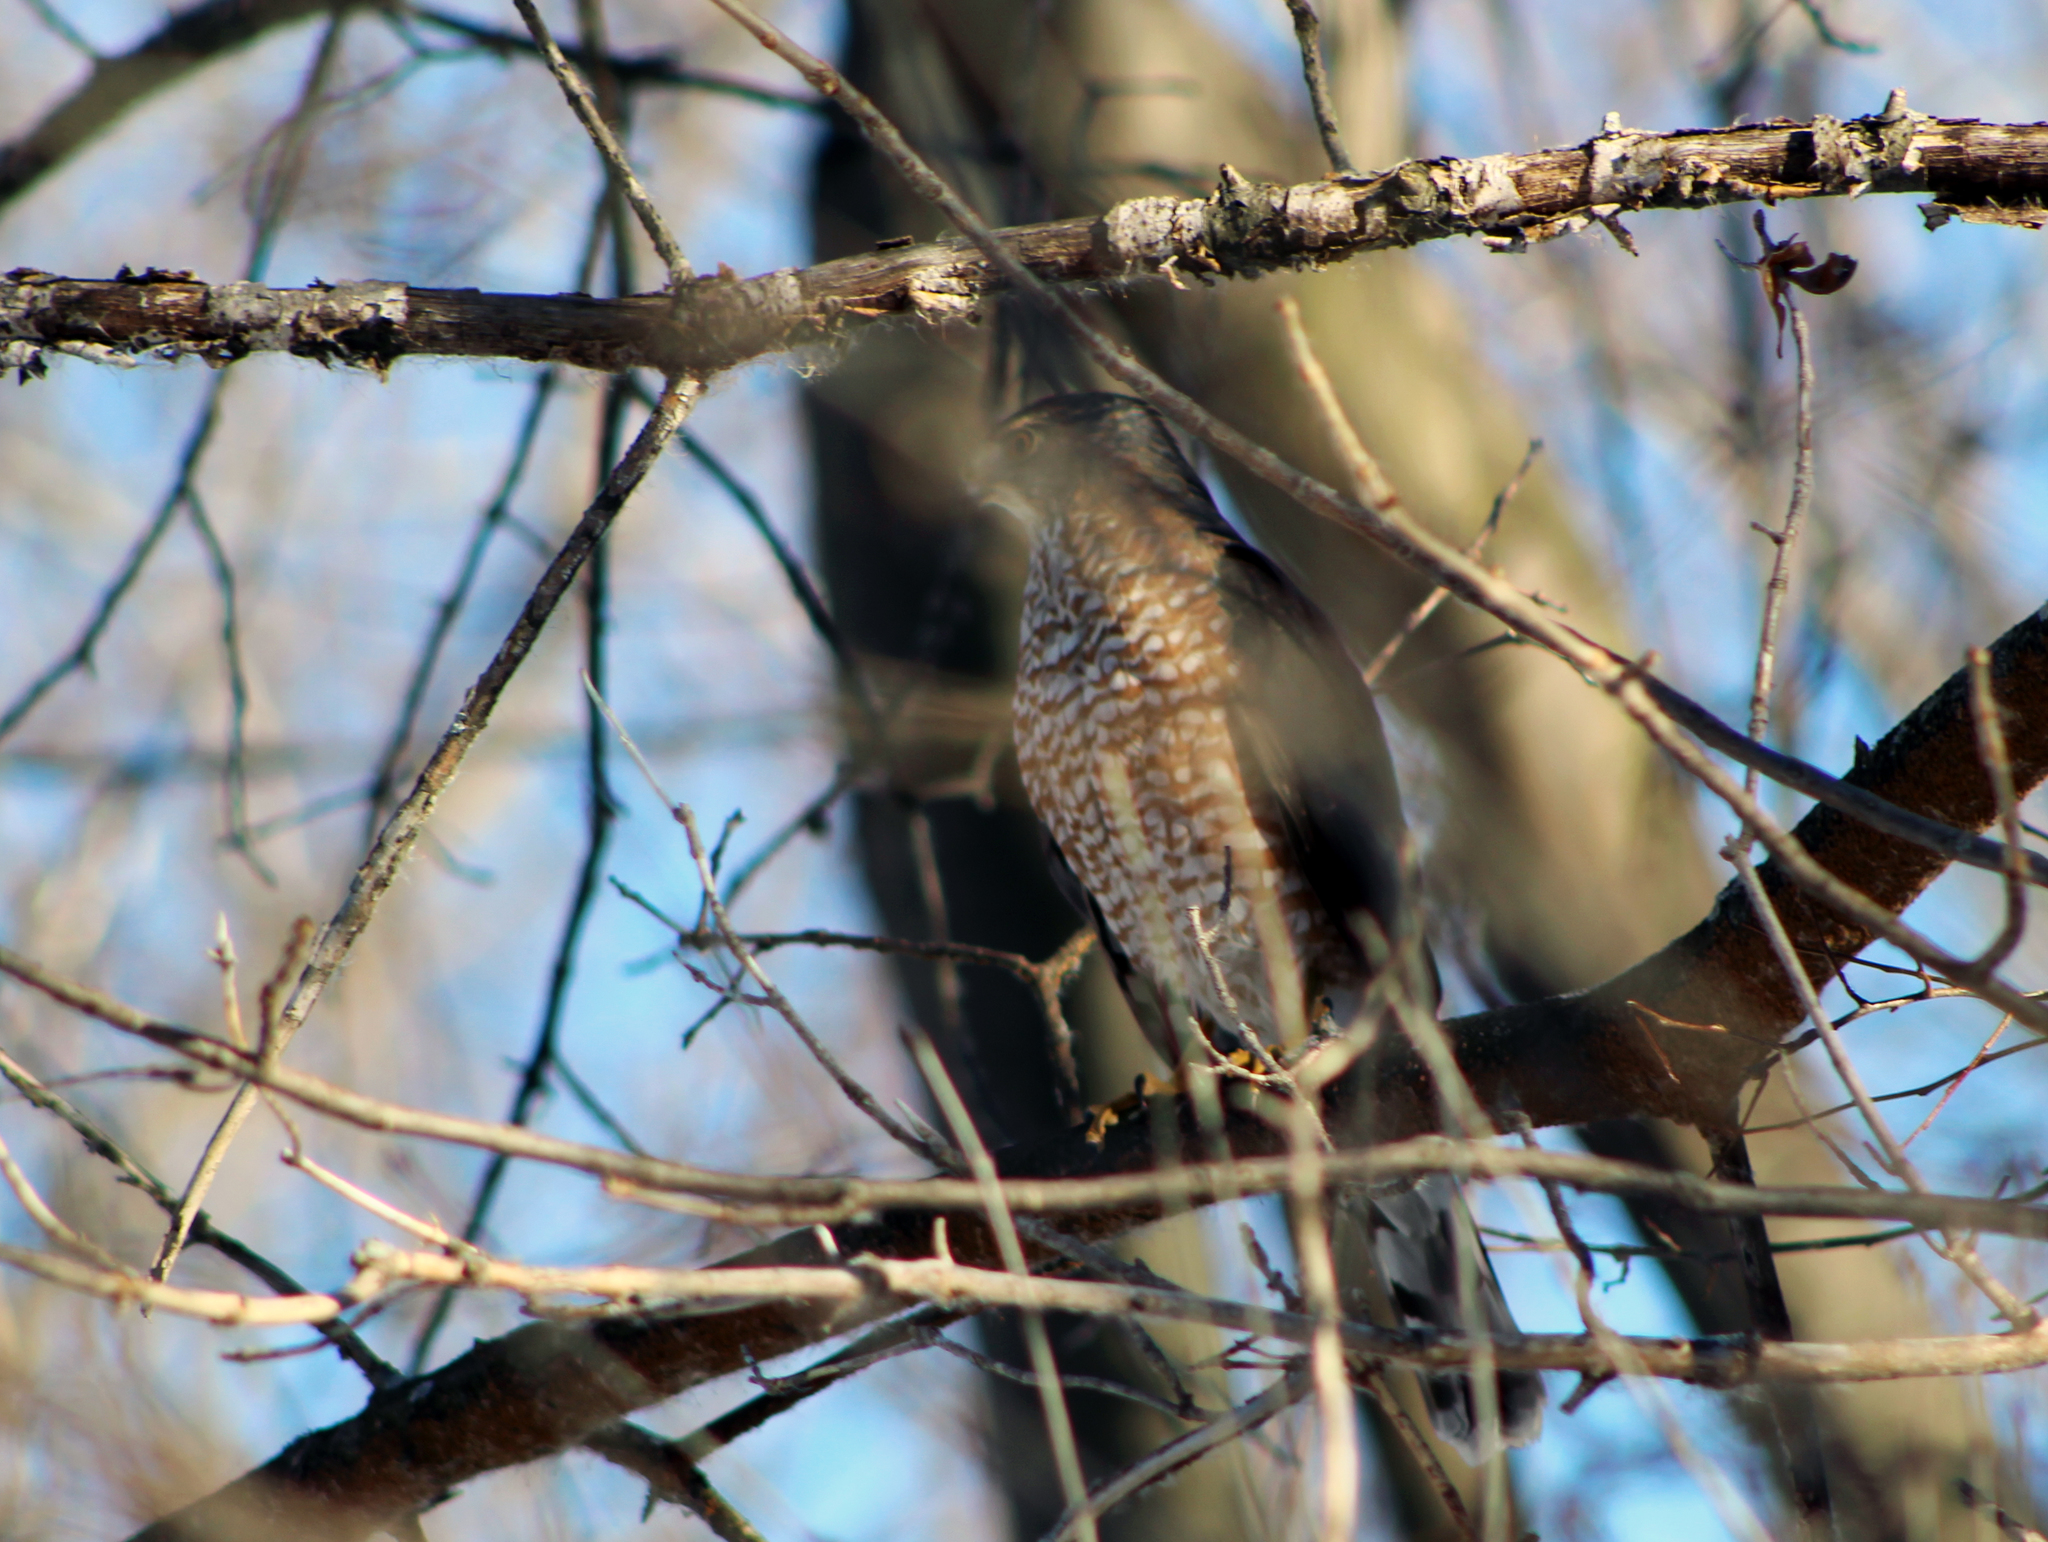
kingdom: Animalia
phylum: Chordata
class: Aves
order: Accipitriformes
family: Accipitridae
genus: Accipiter
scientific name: Accipiter cooperii
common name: Cooper's hawk
